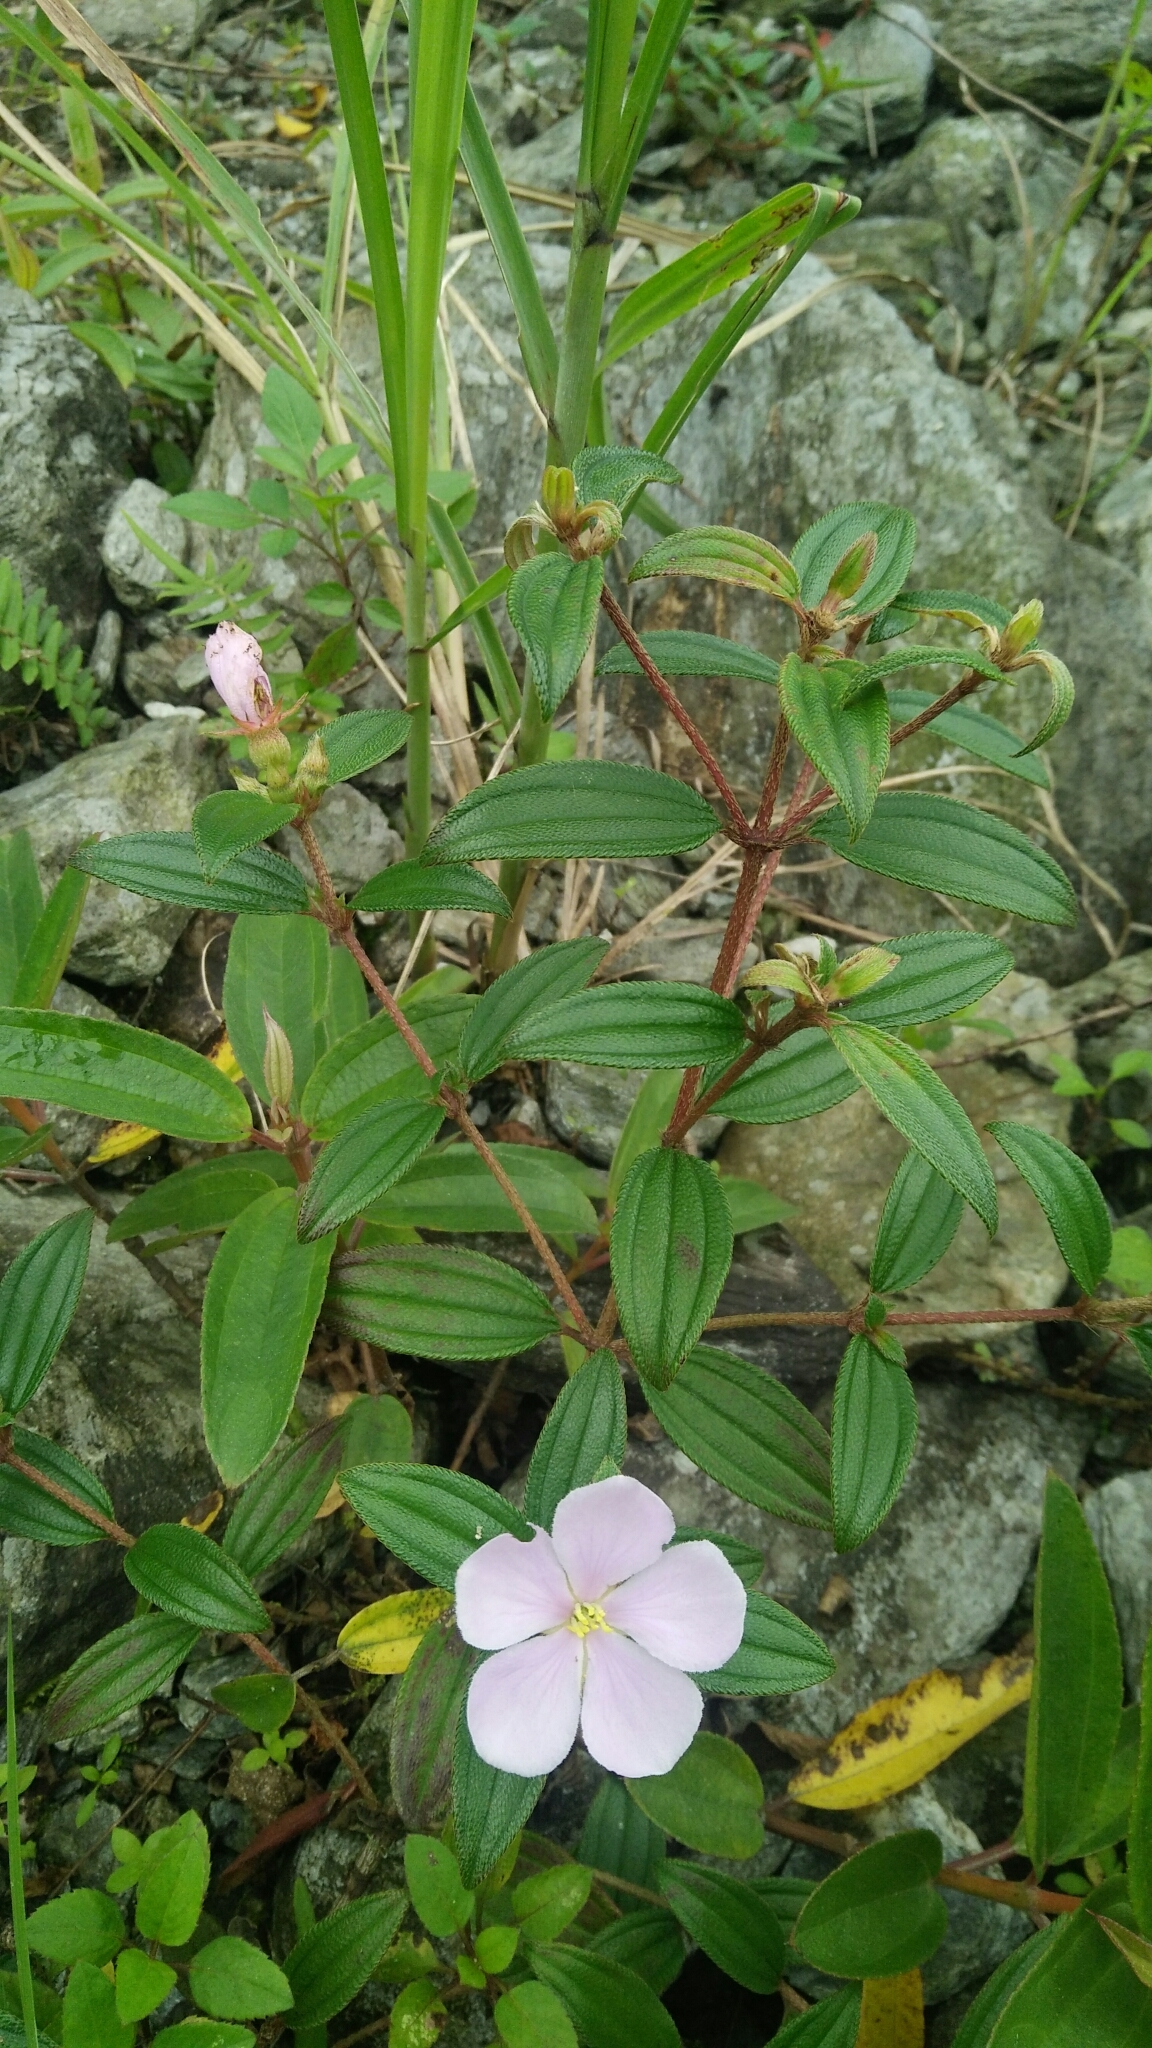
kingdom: Plantae
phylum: Tracheophyta
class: Magnoliopsida
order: Myrtales
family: Melastomataceae
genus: Melastoma
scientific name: Melastoma scaberrima
